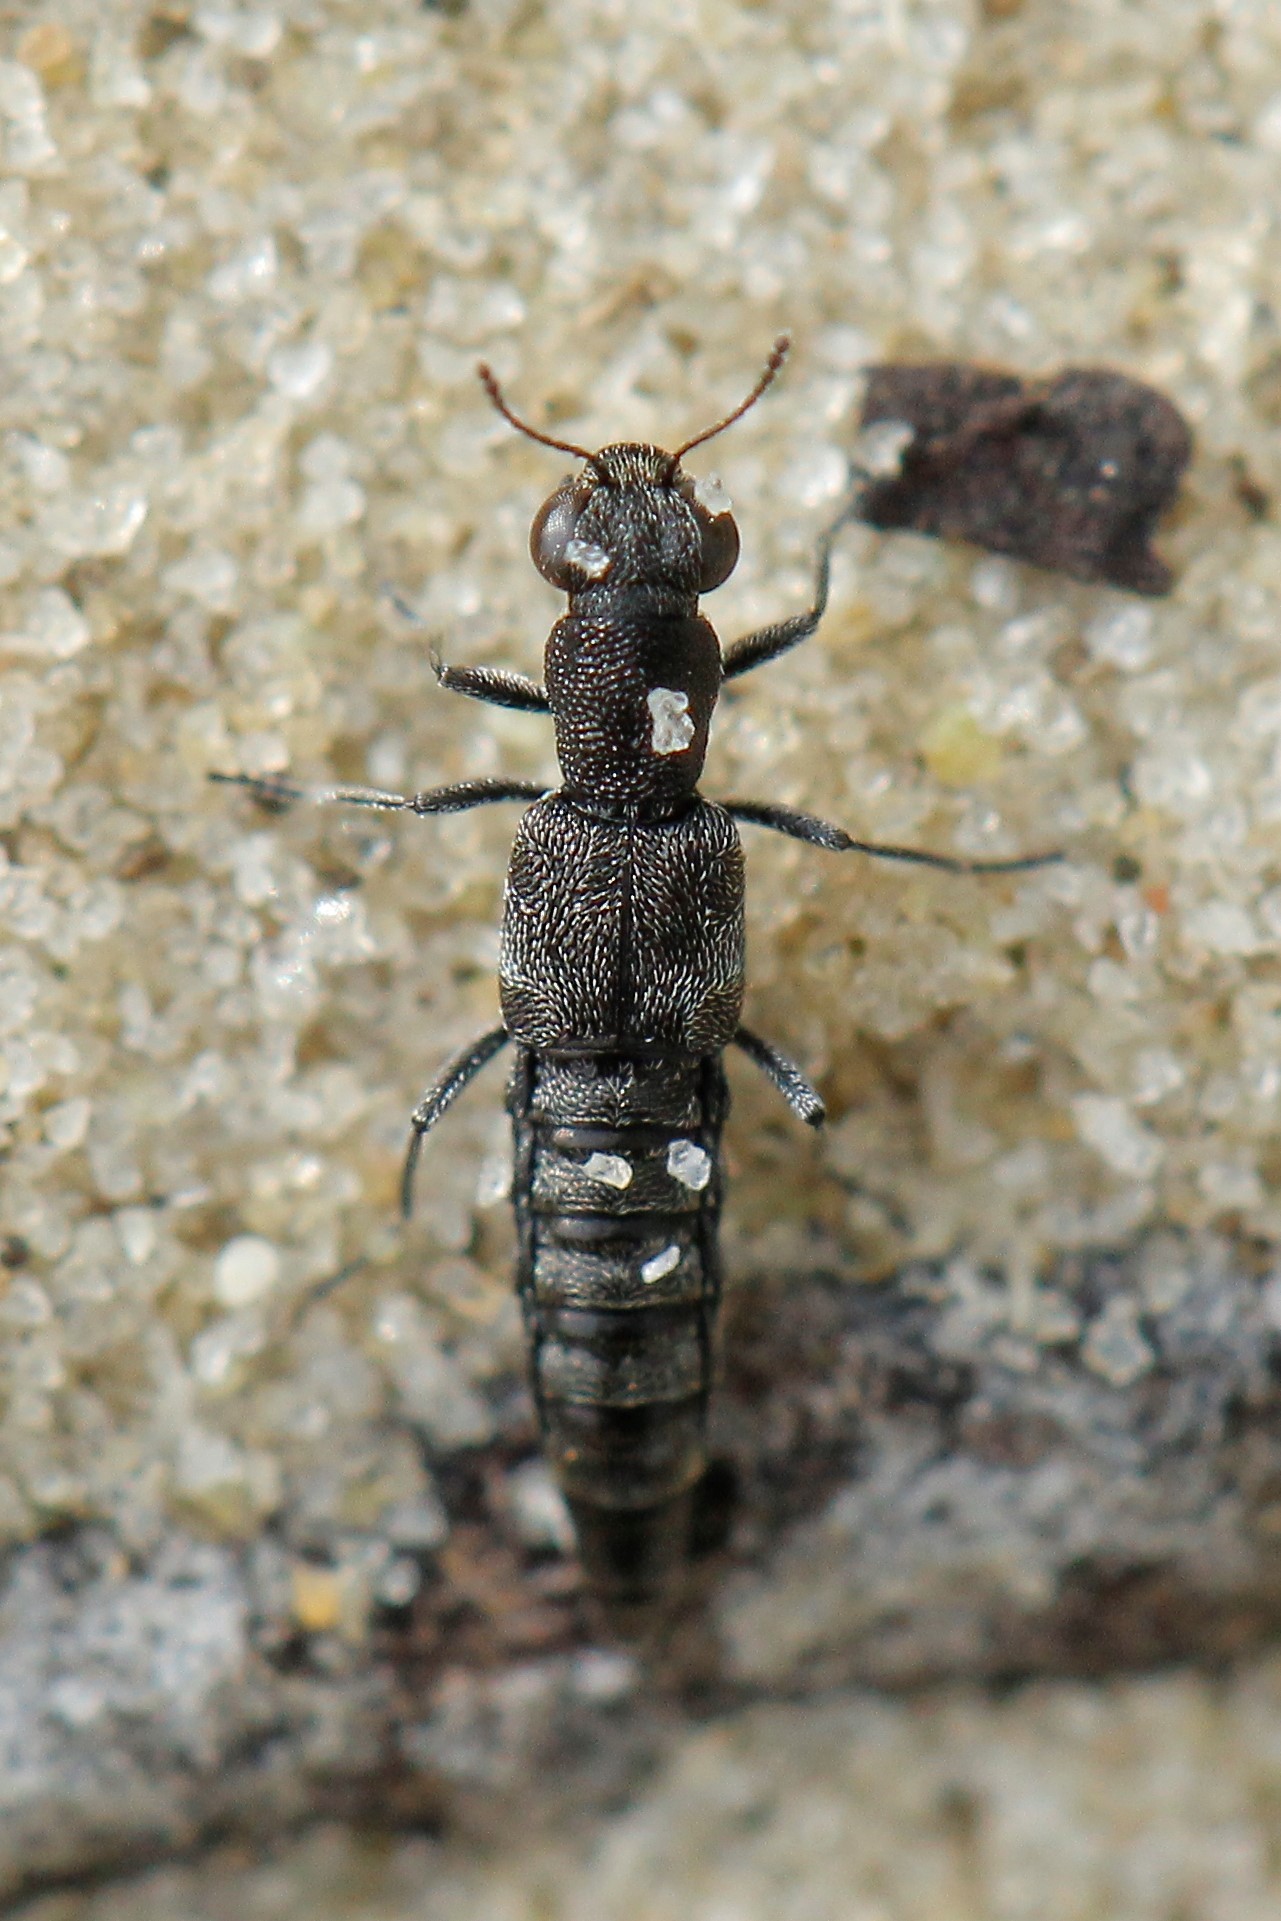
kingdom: Animalia
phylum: Arthropoda
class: Insecta
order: Coleoptera
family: Staphylinidae
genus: Stenus
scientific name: Stenus palposus
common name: Lough neagh camphor beetle
